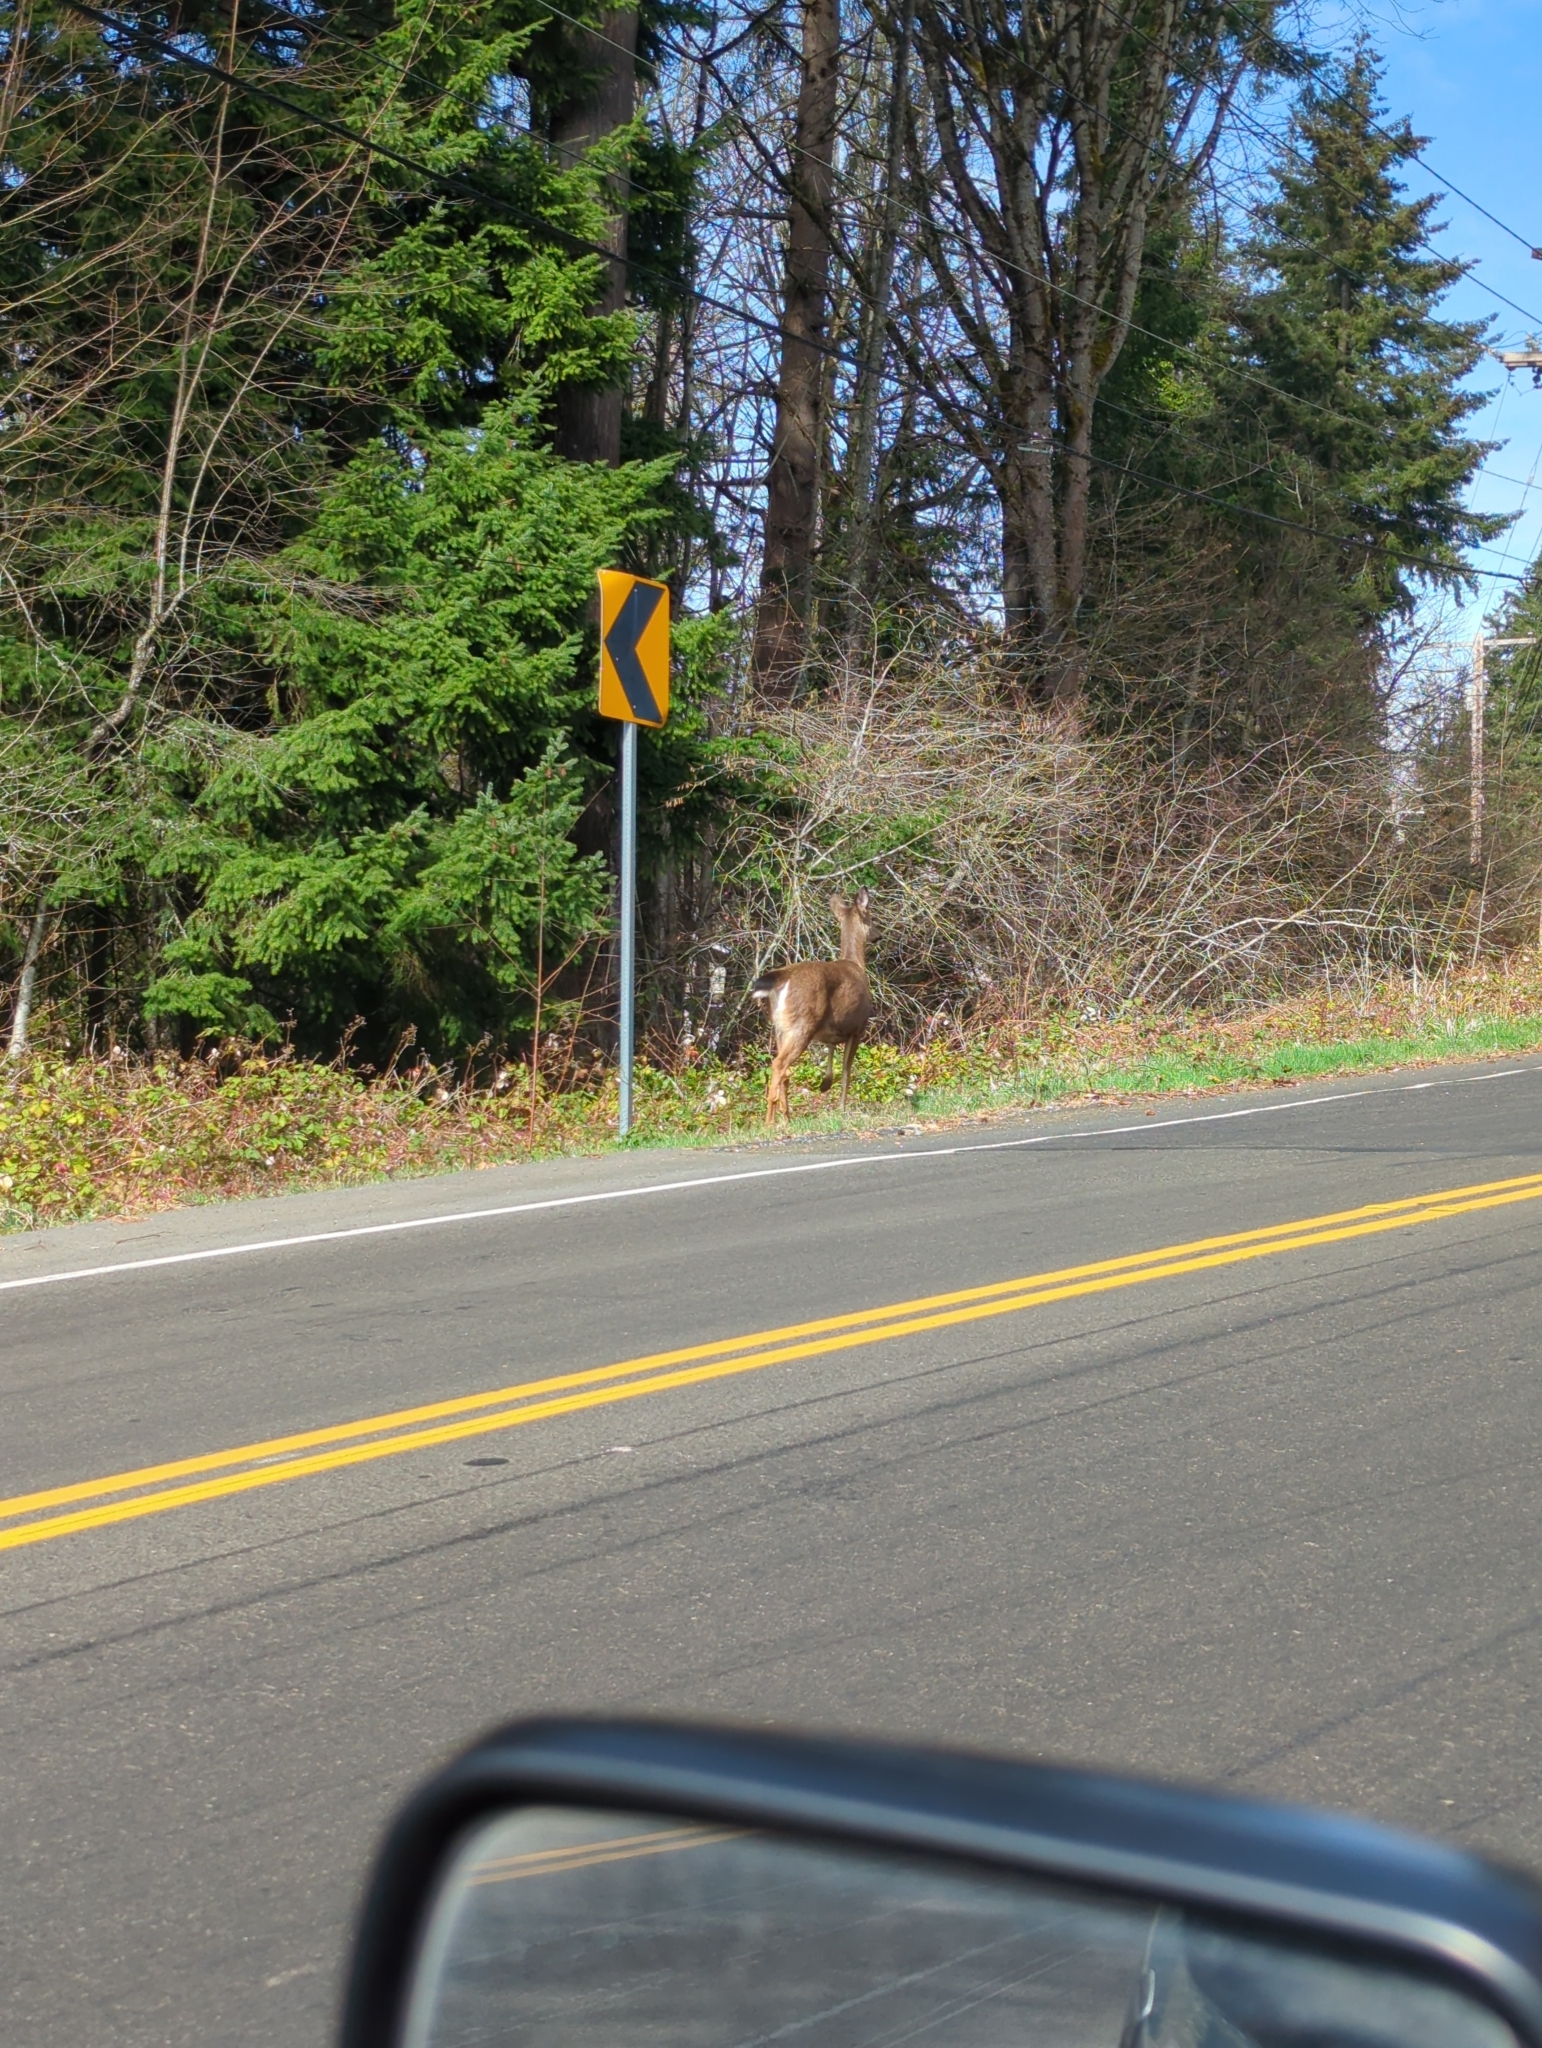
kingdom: Animalia
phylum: Chordata
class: Mammalia
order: Artiodactyla
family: Cervidae
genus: Odocoileus
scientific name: Odocoileus hemionus
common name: Mule deer
